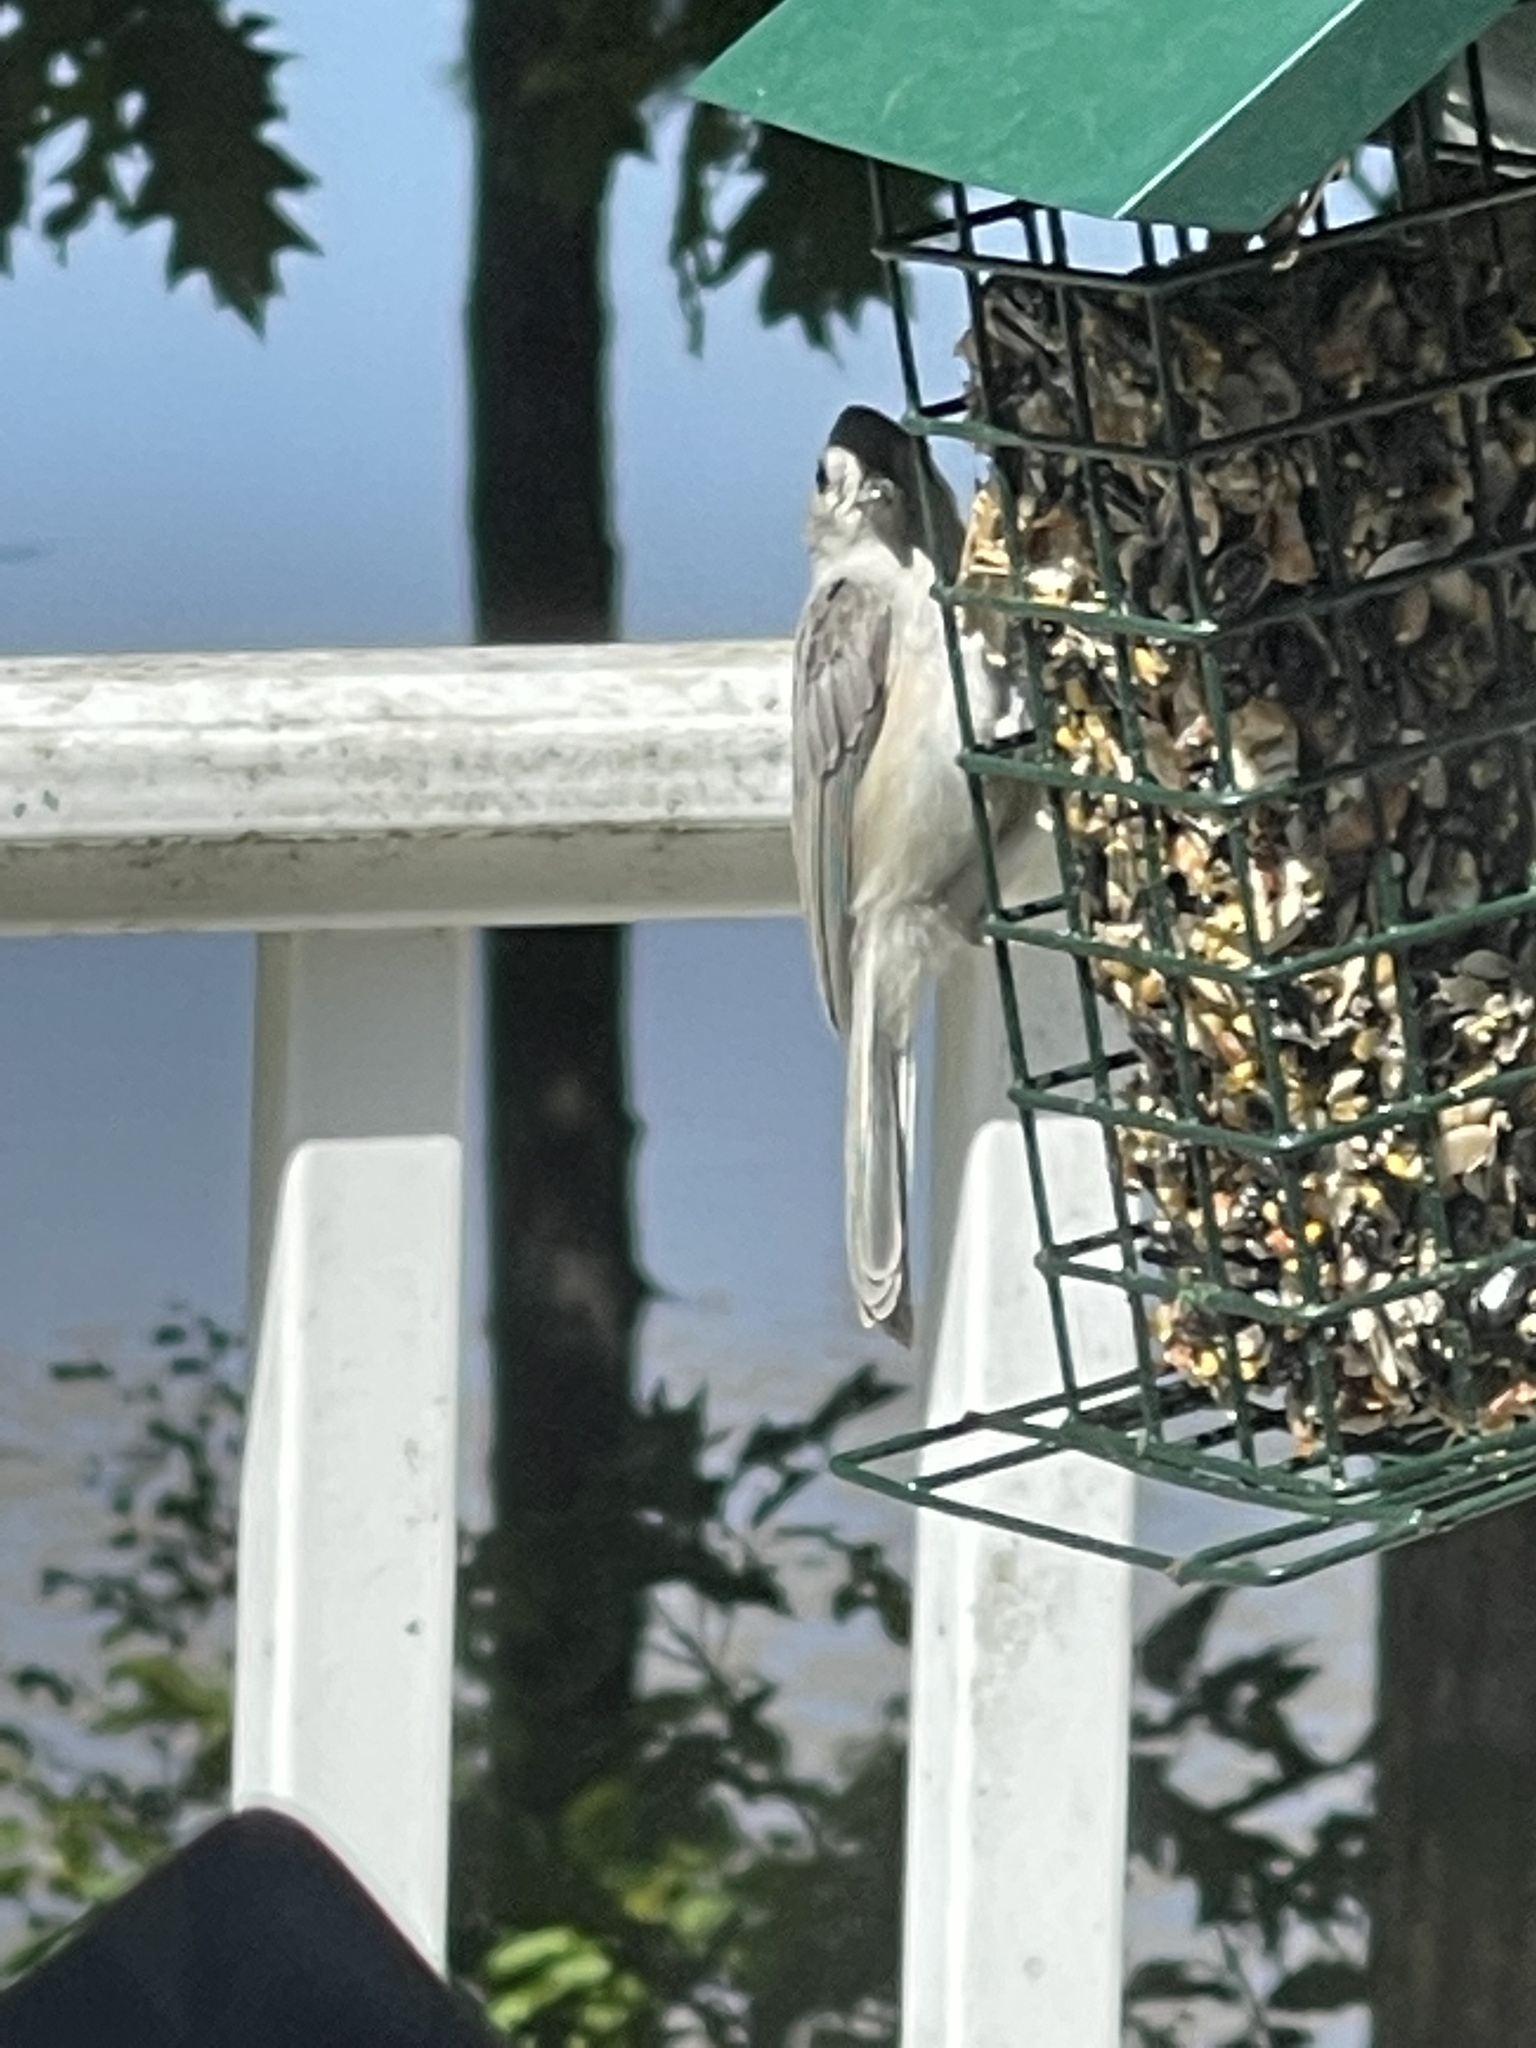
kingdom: Animalia
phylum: Chordata
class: Aves
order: Passeriformes
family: Paridae
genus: Baeolophus
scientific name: Baeolophus bicolor
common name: Tufted titmouse
